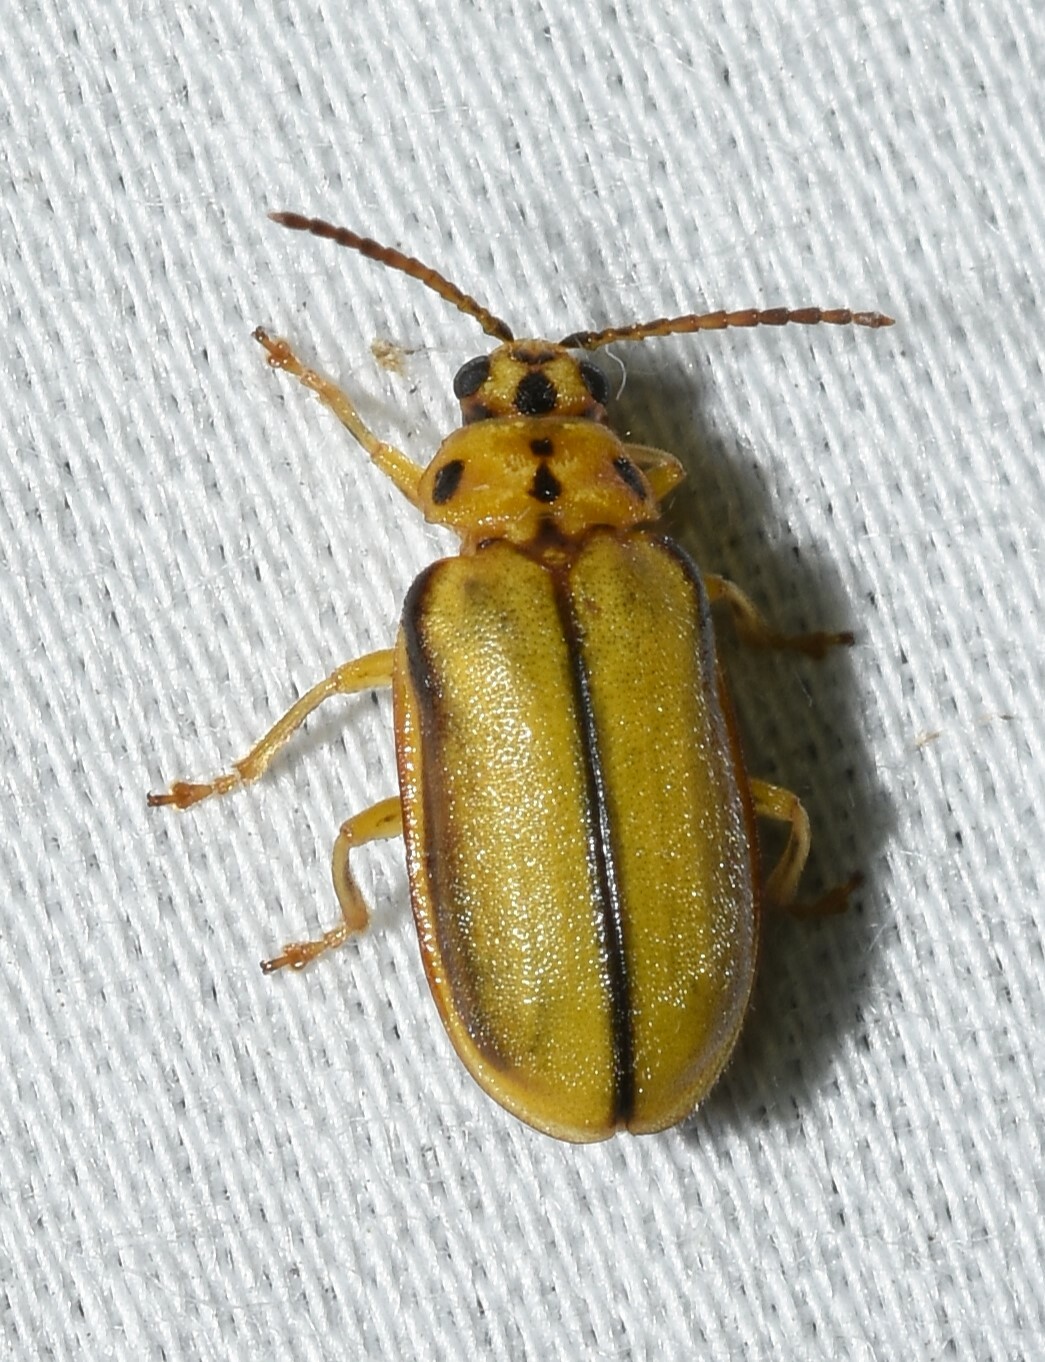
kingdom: Animalia
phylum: Arthropoda
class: Insecta
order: Coleoptera
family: Chrysomelidae
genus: Xanthogaleruca
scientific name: Xanthogaleruca luteola
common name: Elm leaf beetle
